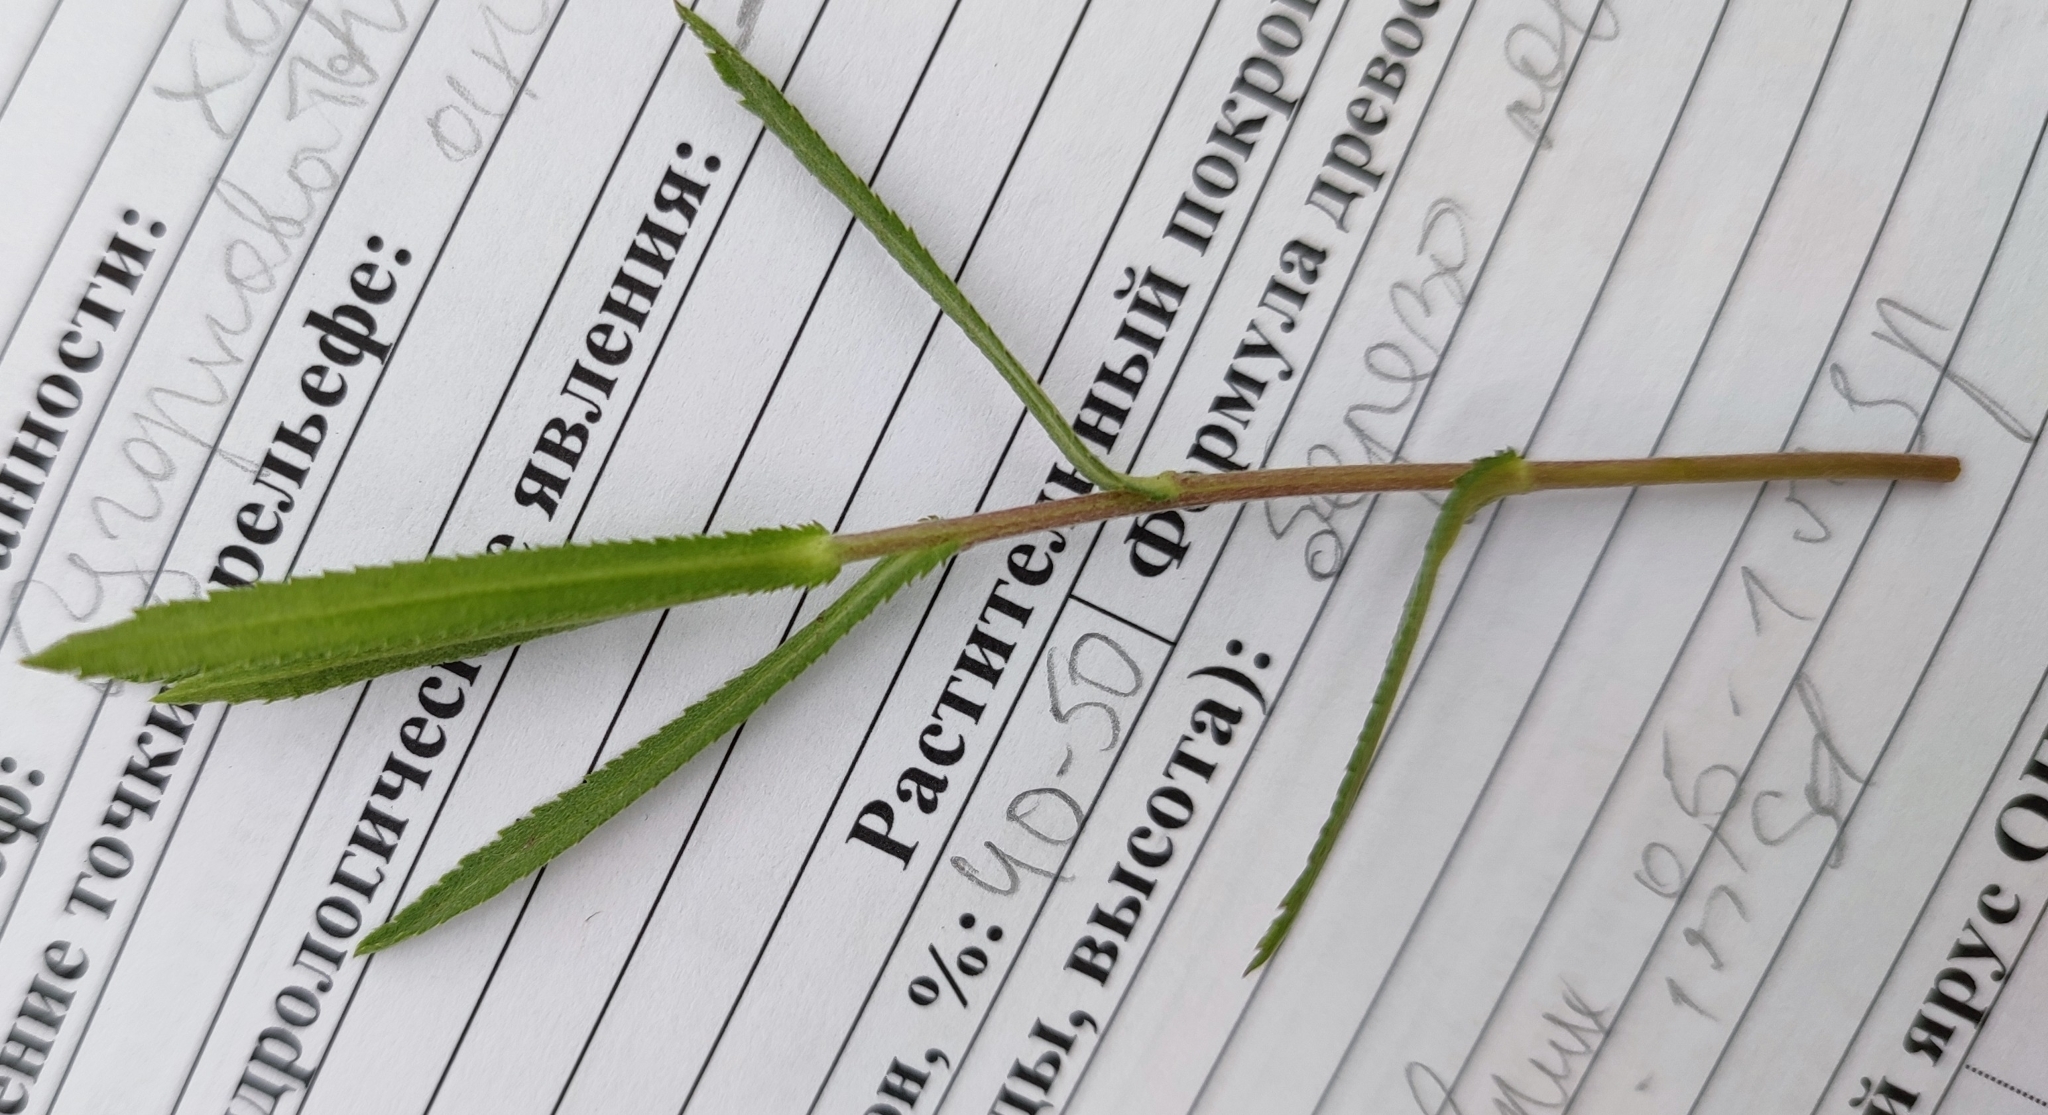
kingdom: Plantae
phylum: Tracheophyta
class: Magnoliopsida
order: Asterales
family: Asteraceae
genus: Achillea
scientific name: Achillea salicifolia
